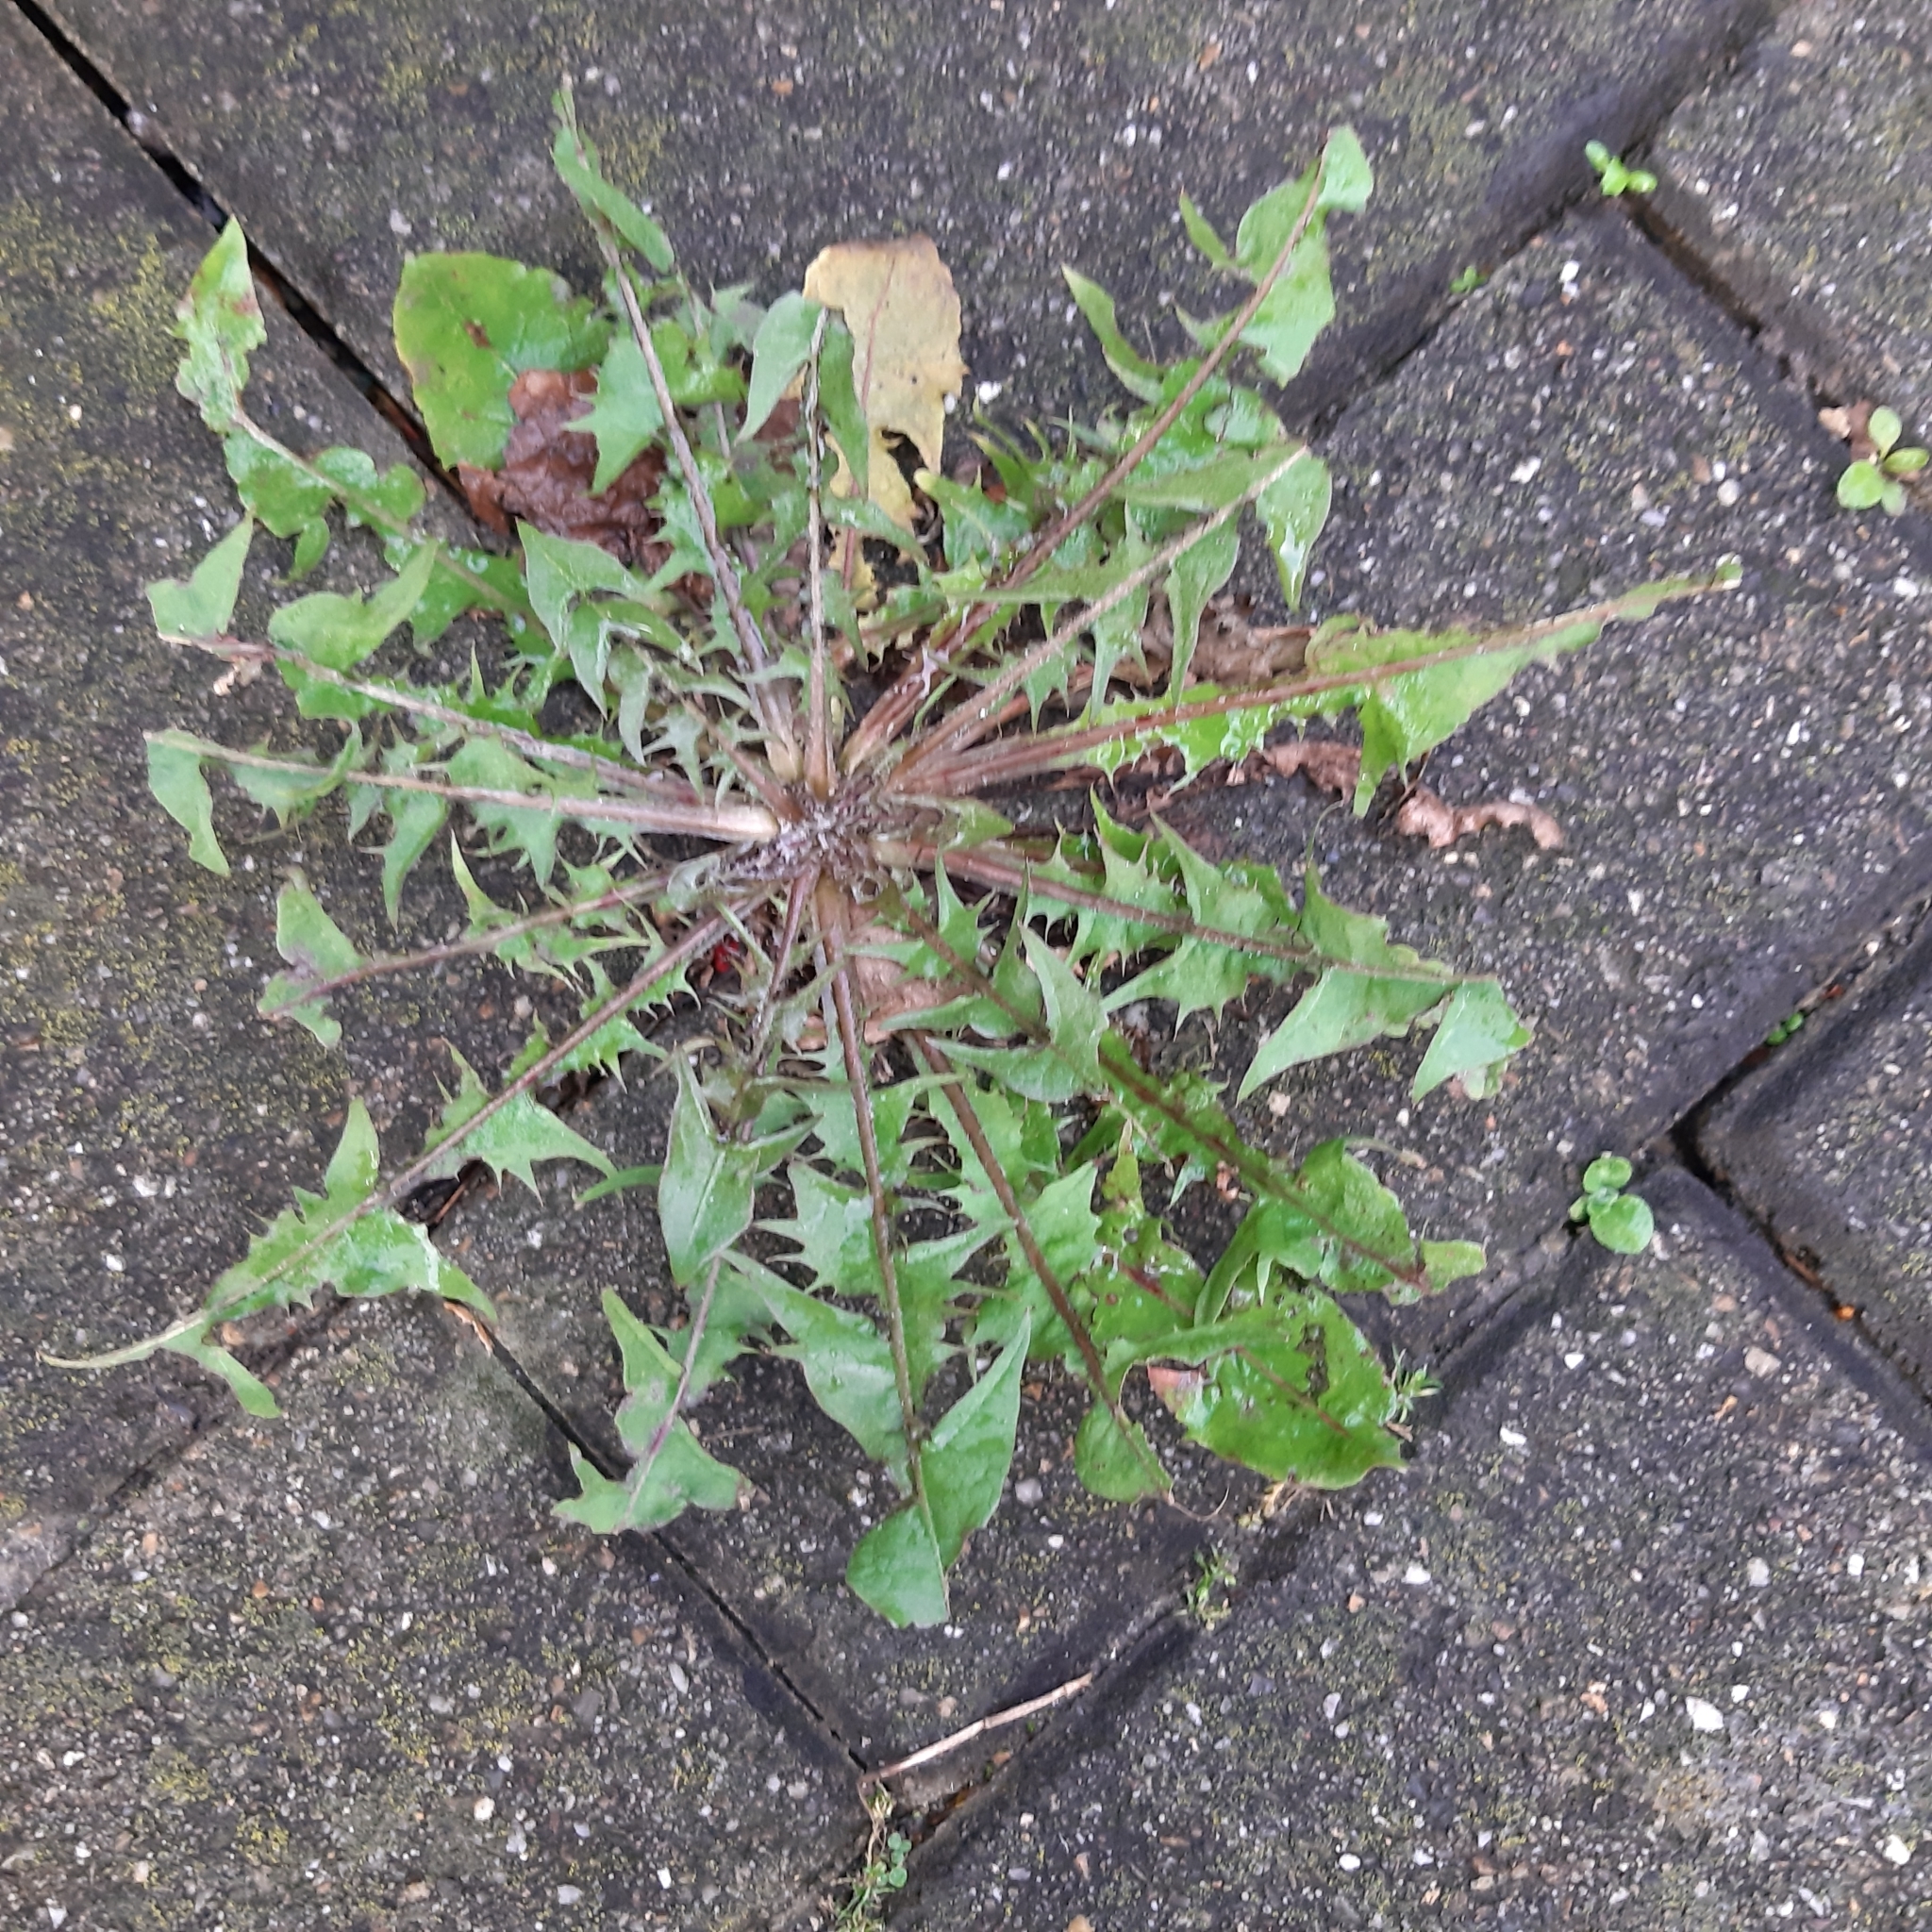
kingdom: Plantae
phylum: Tracheophyta
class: Magnoliopsida
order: Asterales
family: Asteraceae
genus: Taraxacum
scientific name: Taraxacum officinale
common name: Common dandelion
